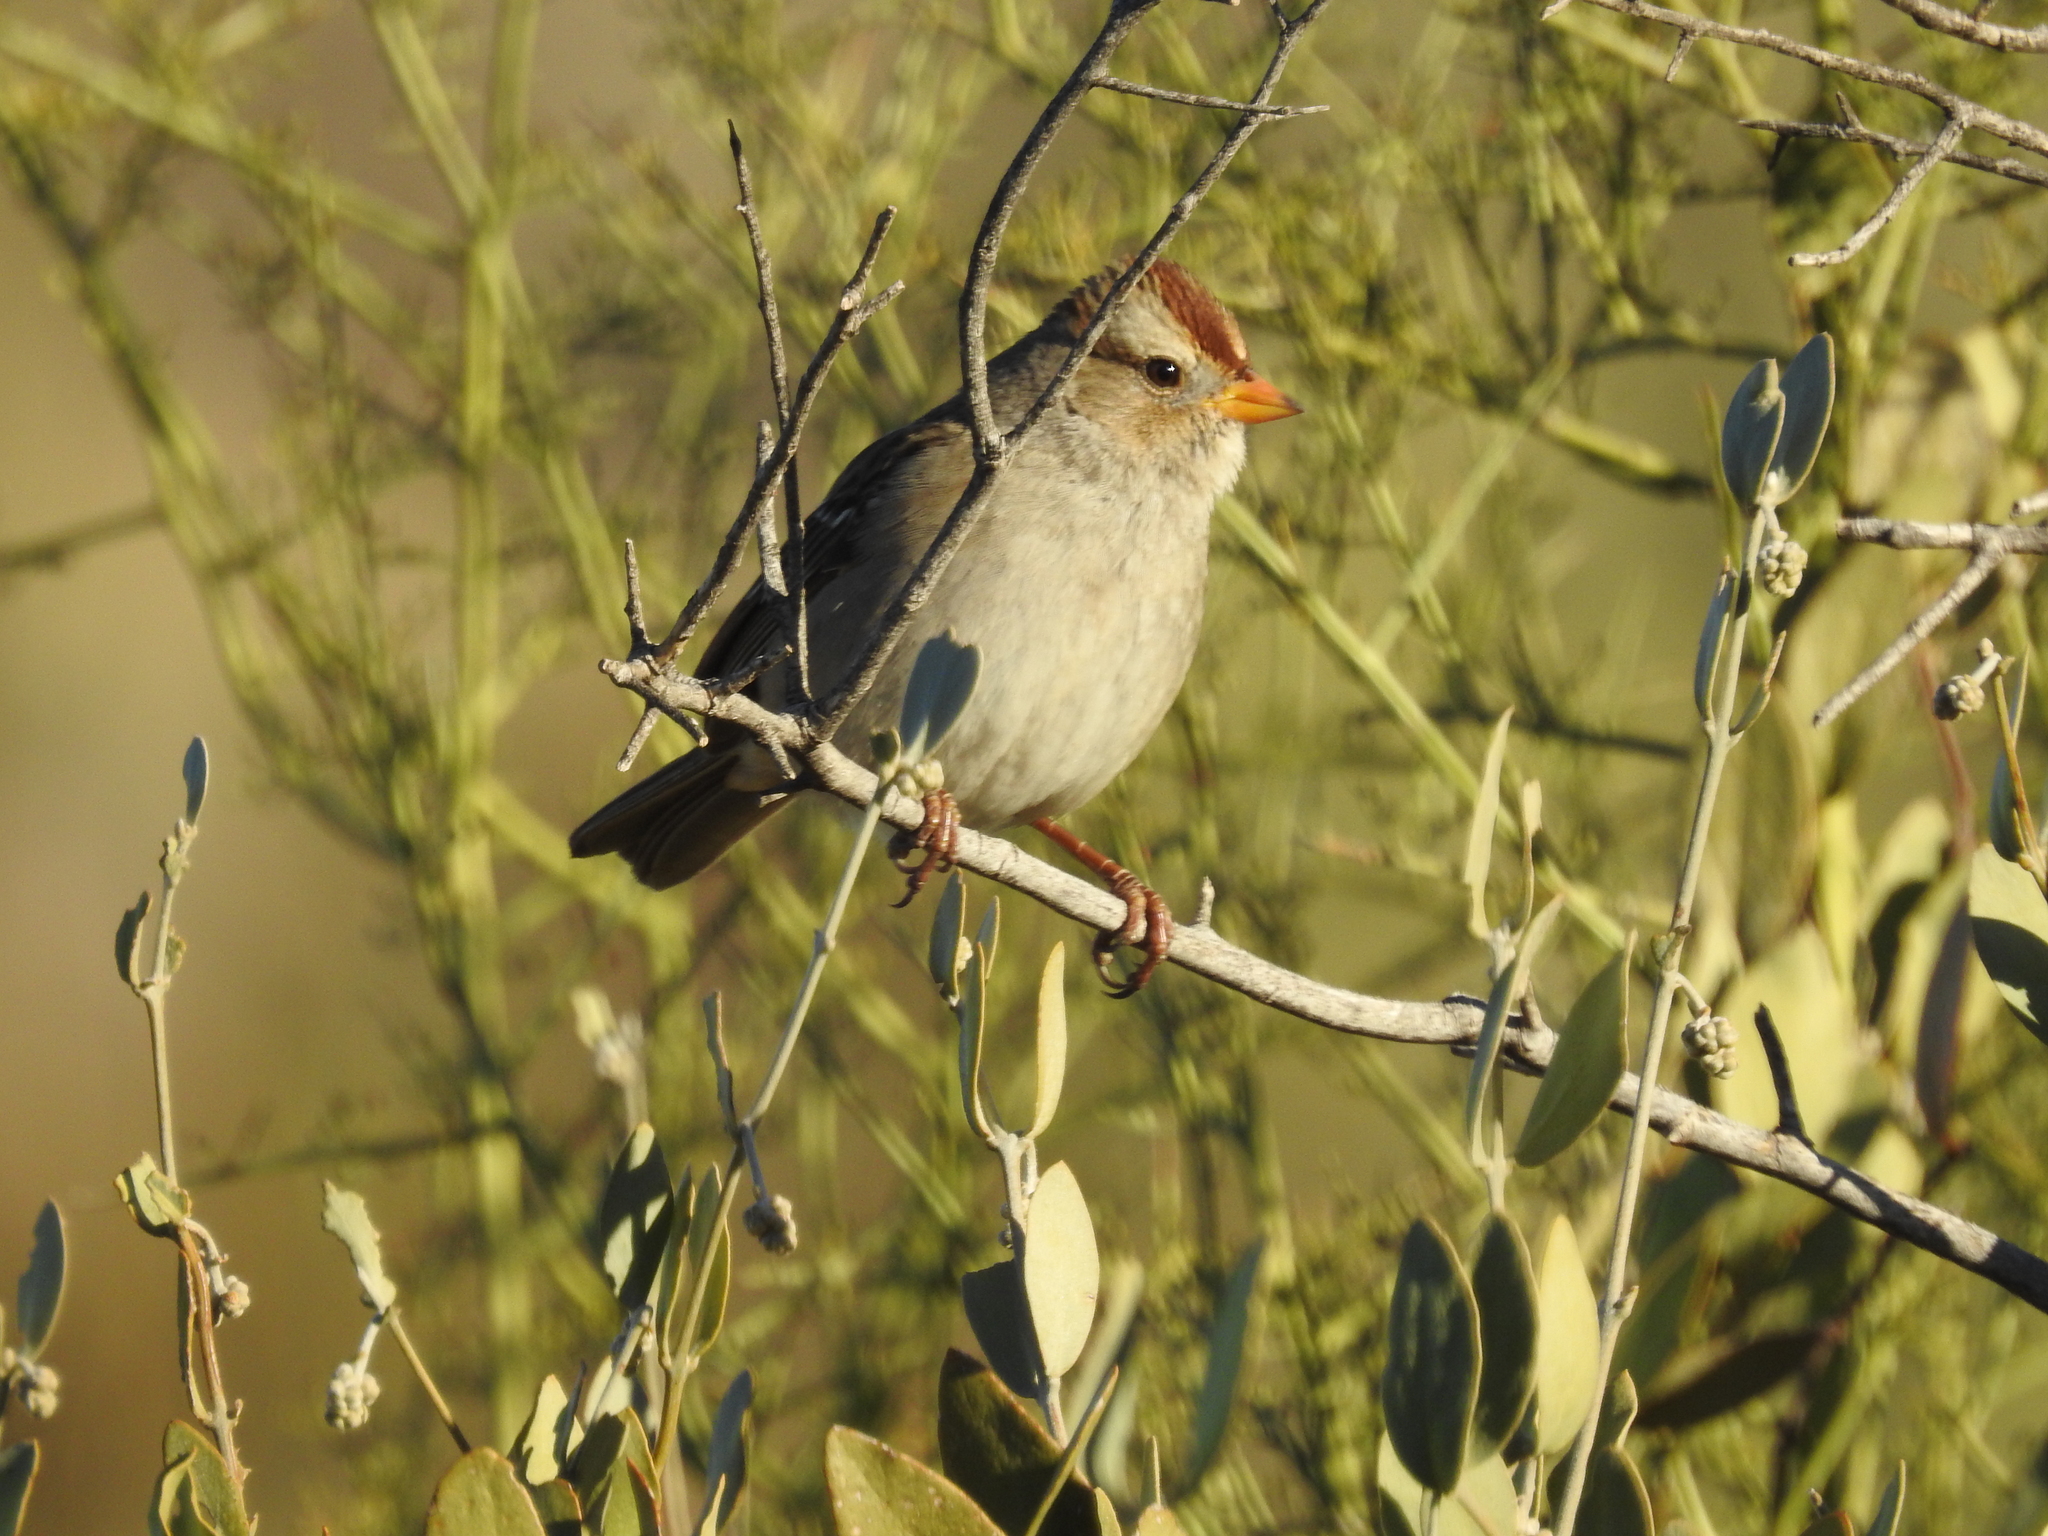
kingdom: Animalia
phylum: Chordata
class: Aves
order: Passeriformes
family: Passerellidae
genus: Zonotrichia
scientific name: Zonotrichia leucophrys
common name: White-crowned sparrow
